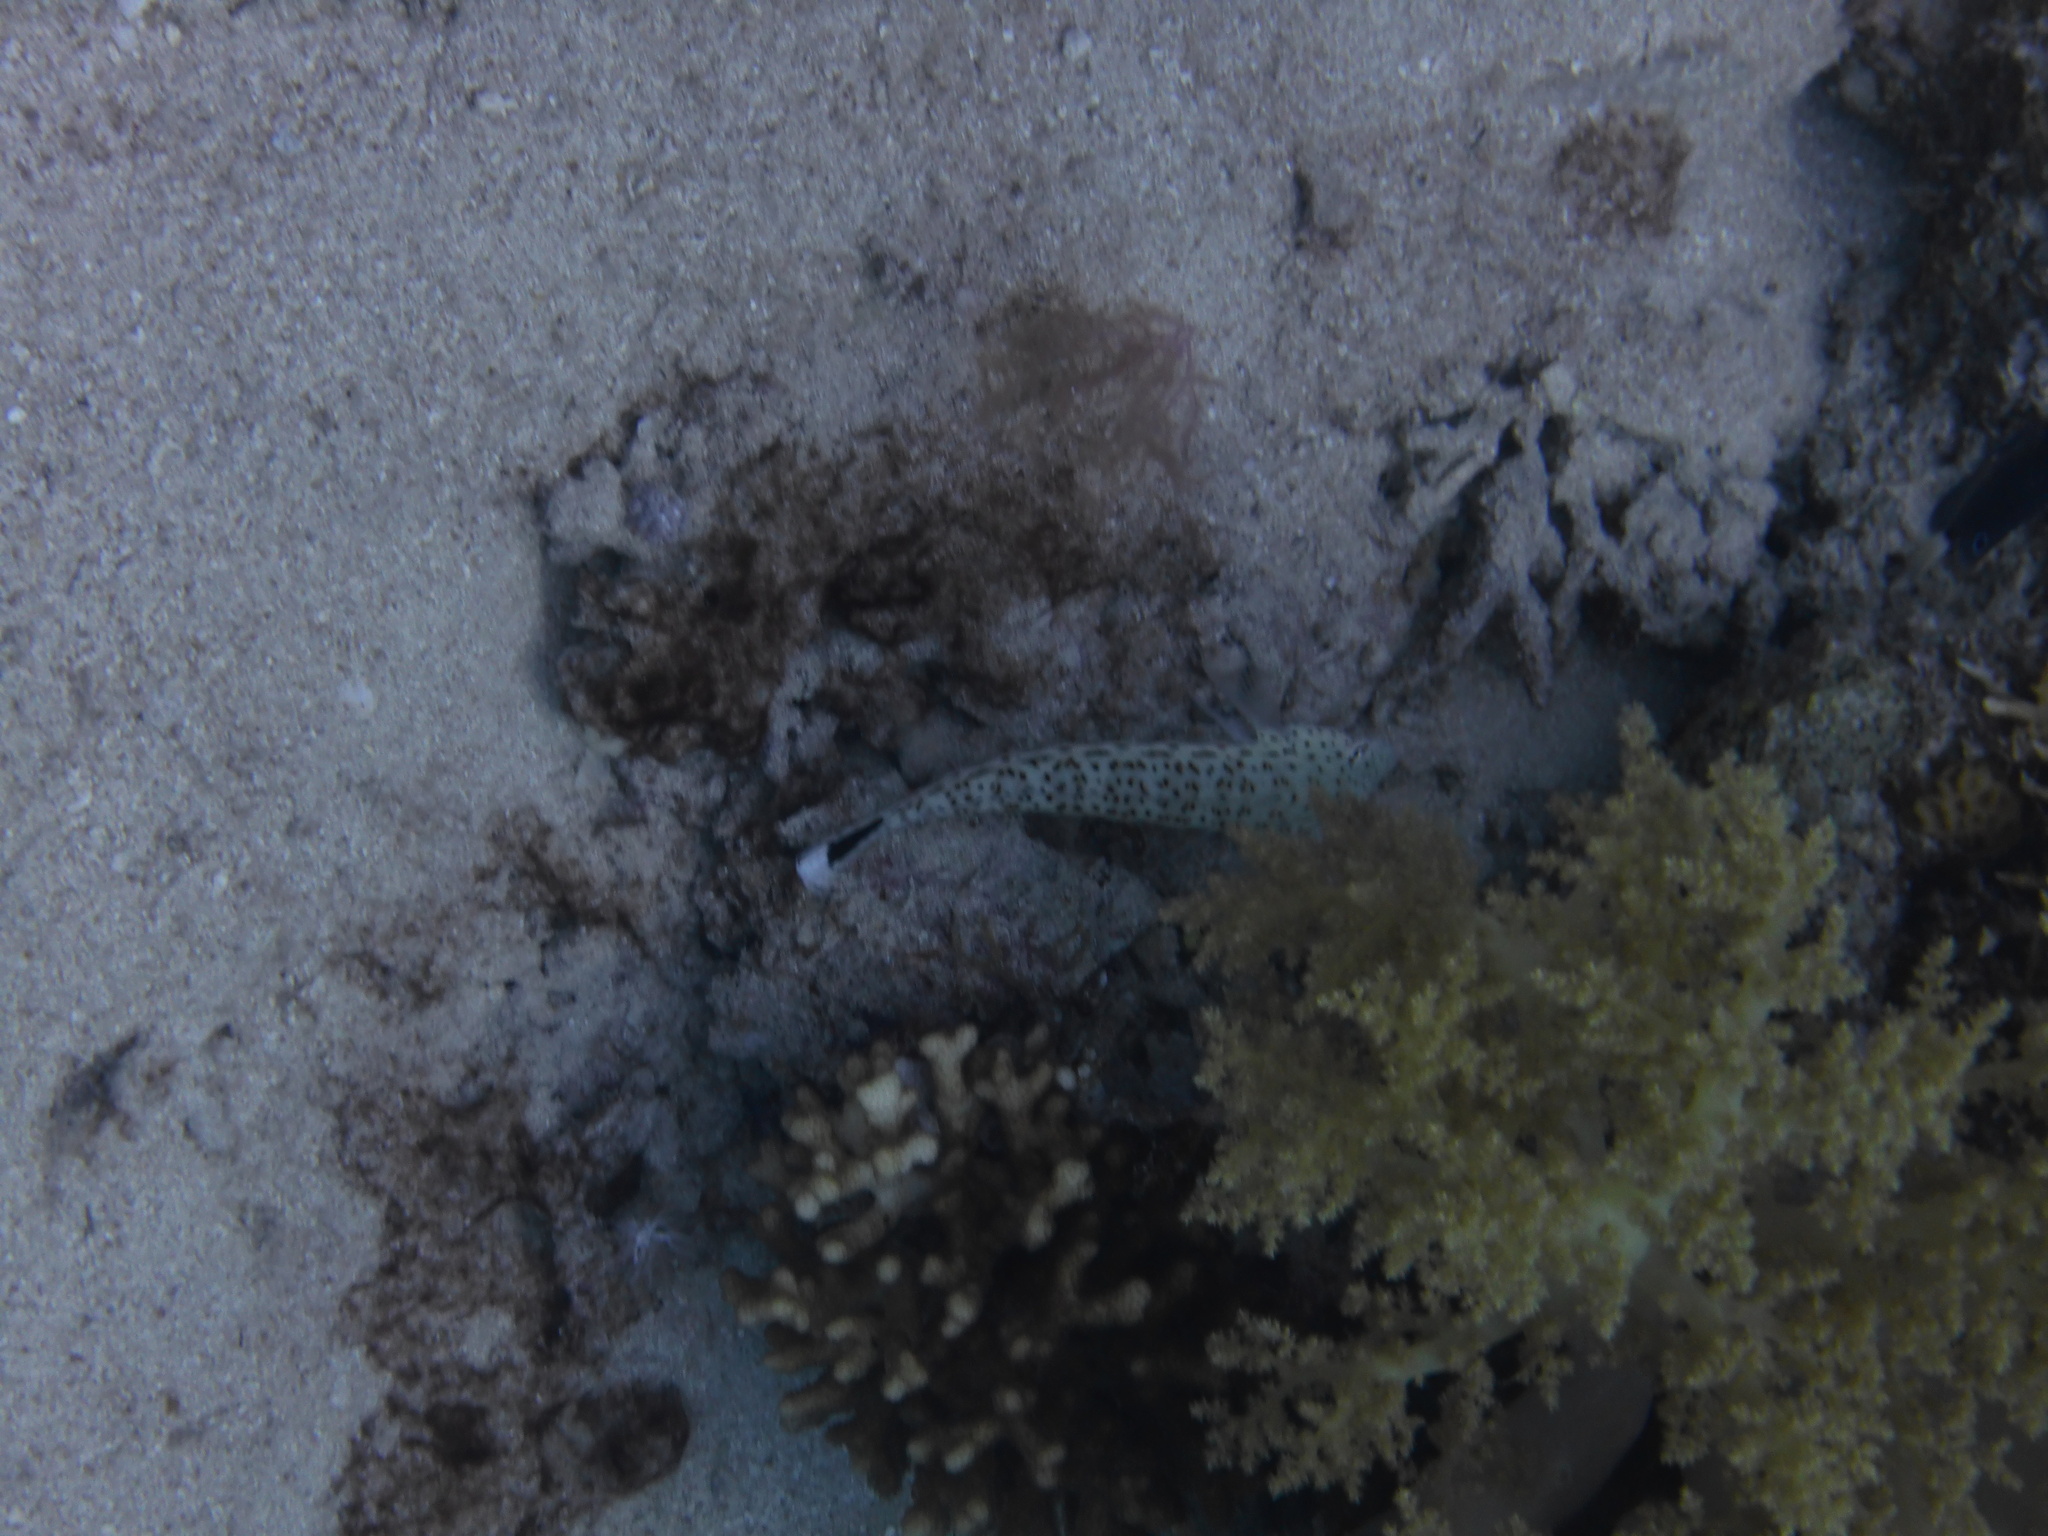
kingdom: Animalia
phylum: Chordata
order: Perciformes
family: Pinguipedidae
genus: Parapercis
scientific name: Parapercis hexophtalma
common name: Speckled sandperch
